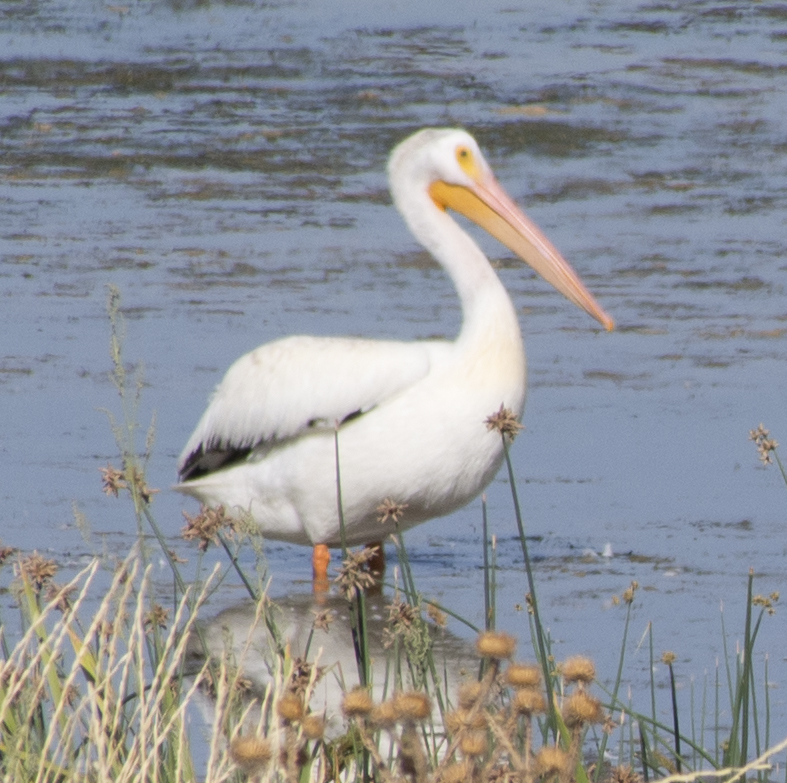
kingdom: Animalia
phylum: Chordata
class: Aves
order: Pelecaniformes
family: Pelecanidae
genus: Pelecanus
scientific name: Pelecanus erythrorhynchos
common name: American white pelican
